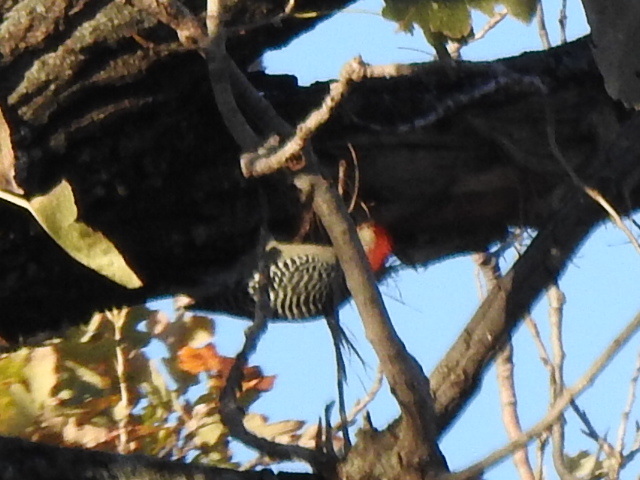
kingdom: Animalia
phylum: Chordata
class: Aves
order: Piciformes
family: Picidae
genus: Melanerpes
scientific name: Melanerpes carolinus
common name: Red-bellied woodpecker
